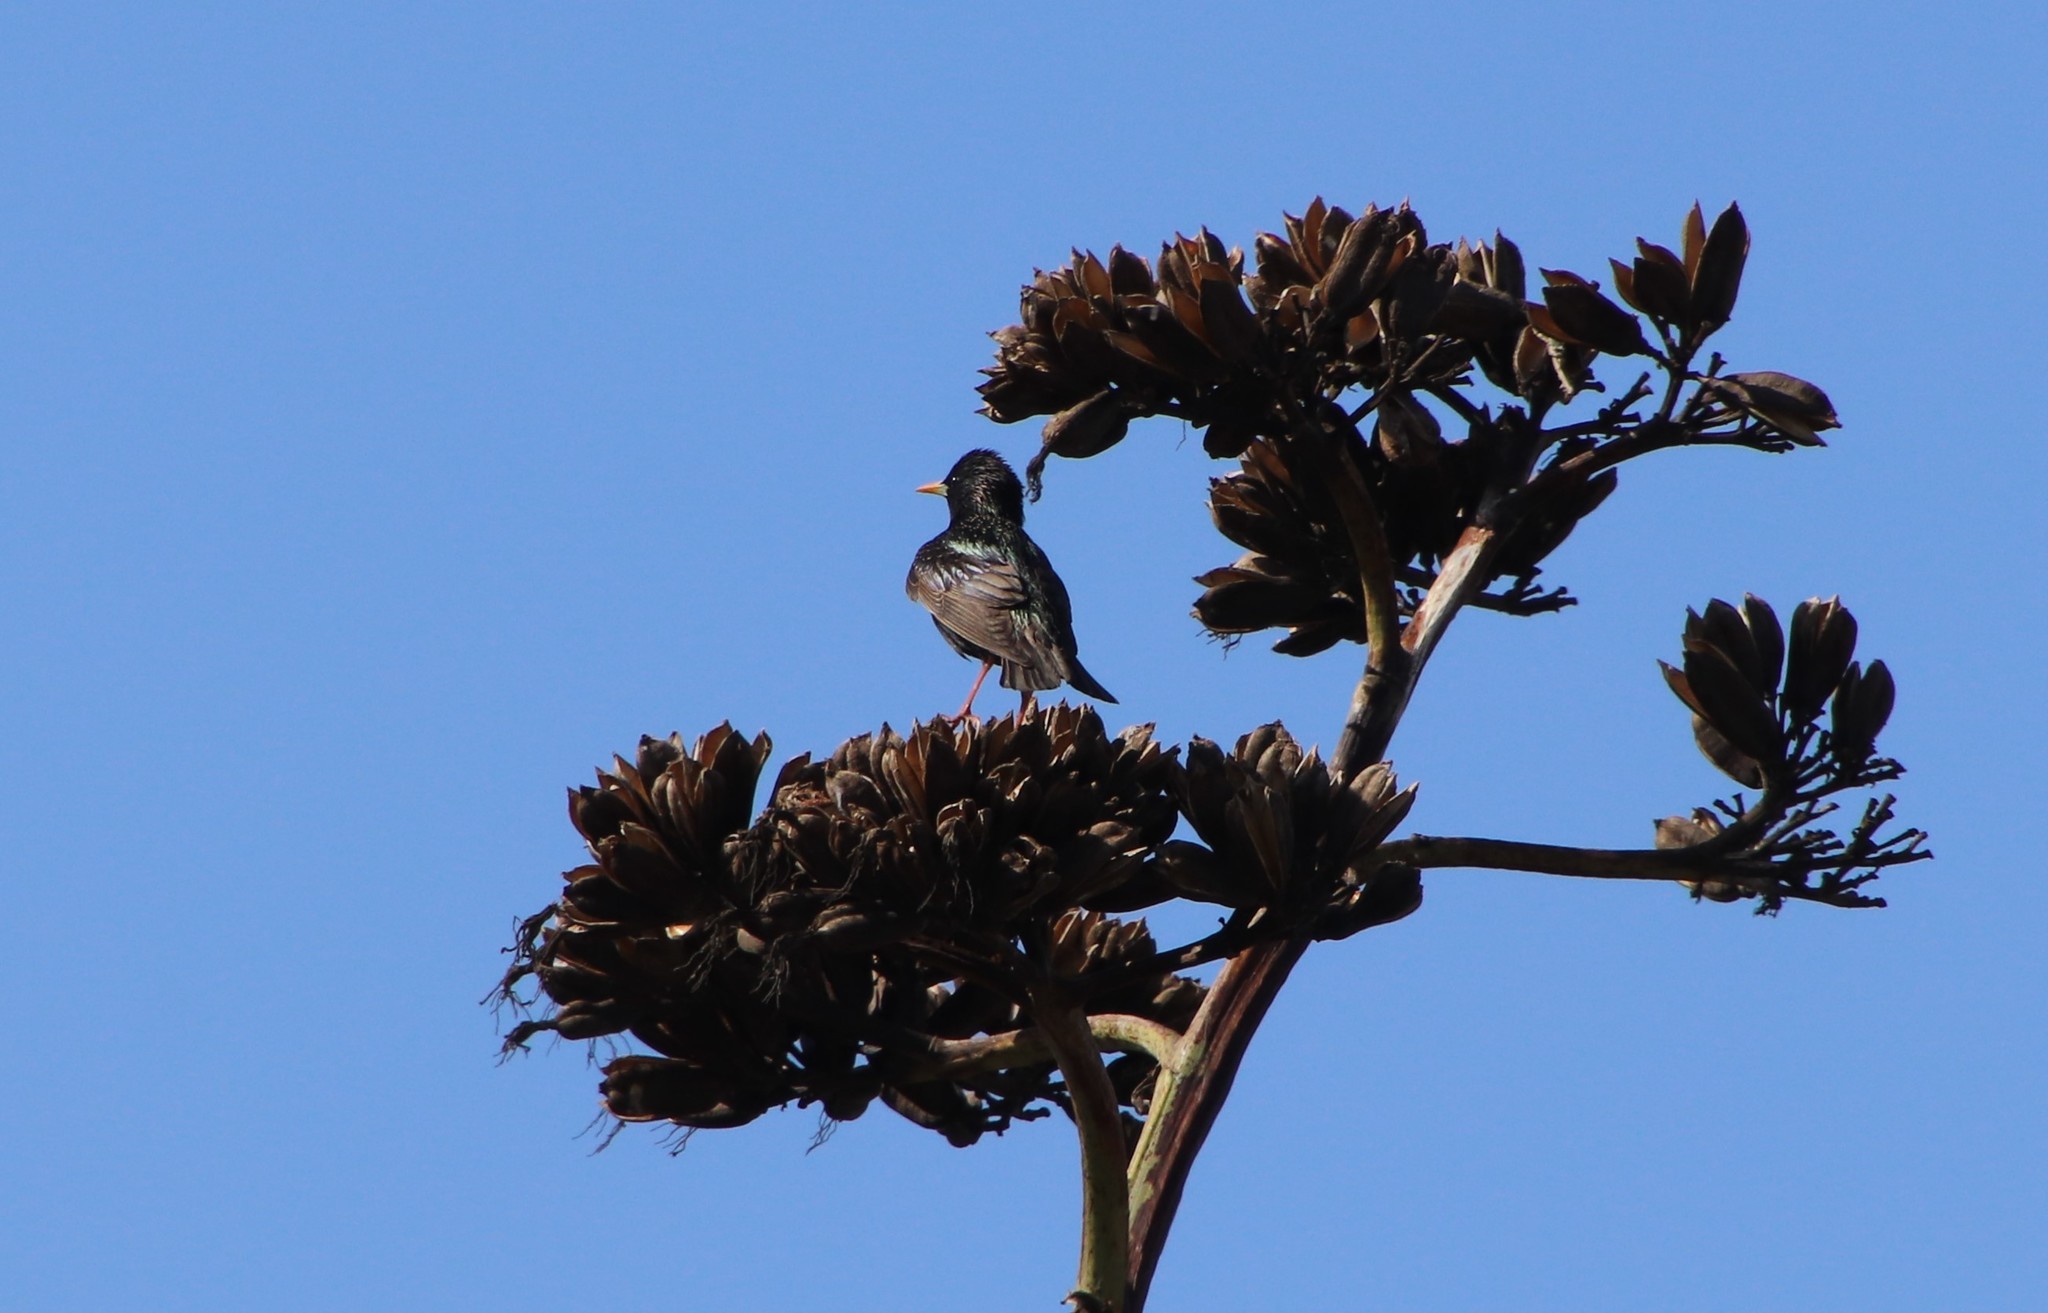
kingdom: Animalia
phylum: Chordata
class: Aves
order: Passeriformes
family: Sturnidae
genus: Sturnus
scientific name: Sturnus vulgaris
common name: Common starling
